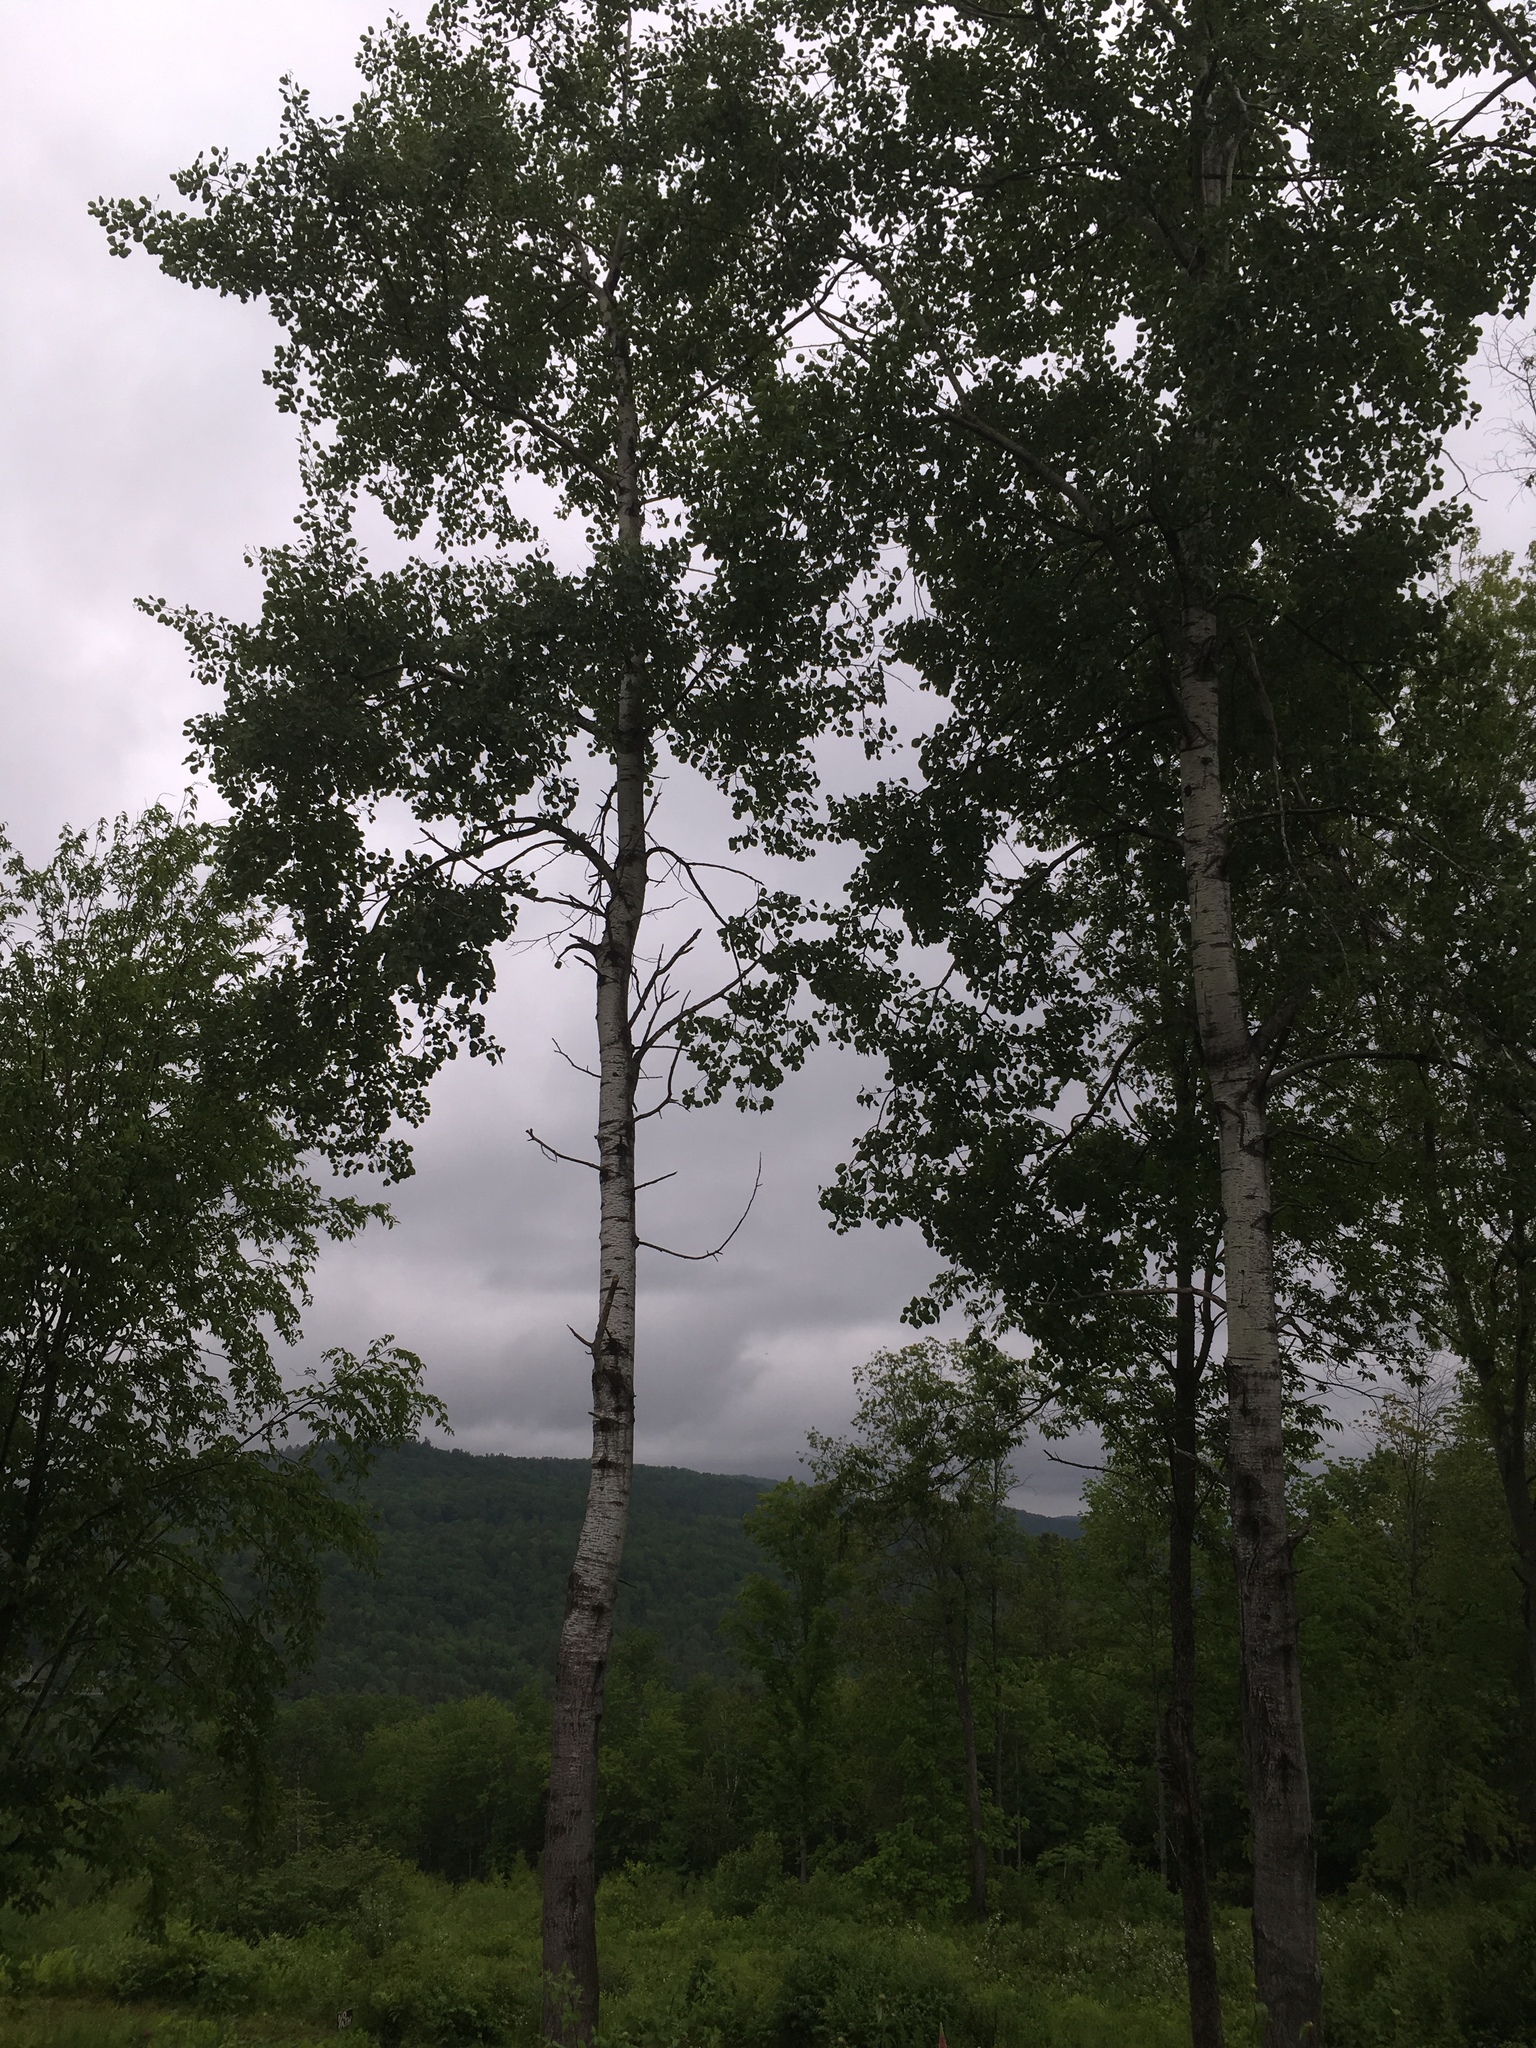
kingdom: Plantae
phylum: Tracheophyta
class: Magnoliopsida
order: Malpighiales
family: Salicaceae
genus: Populus
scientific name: Populus tremuloides
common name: Quaking aspen
